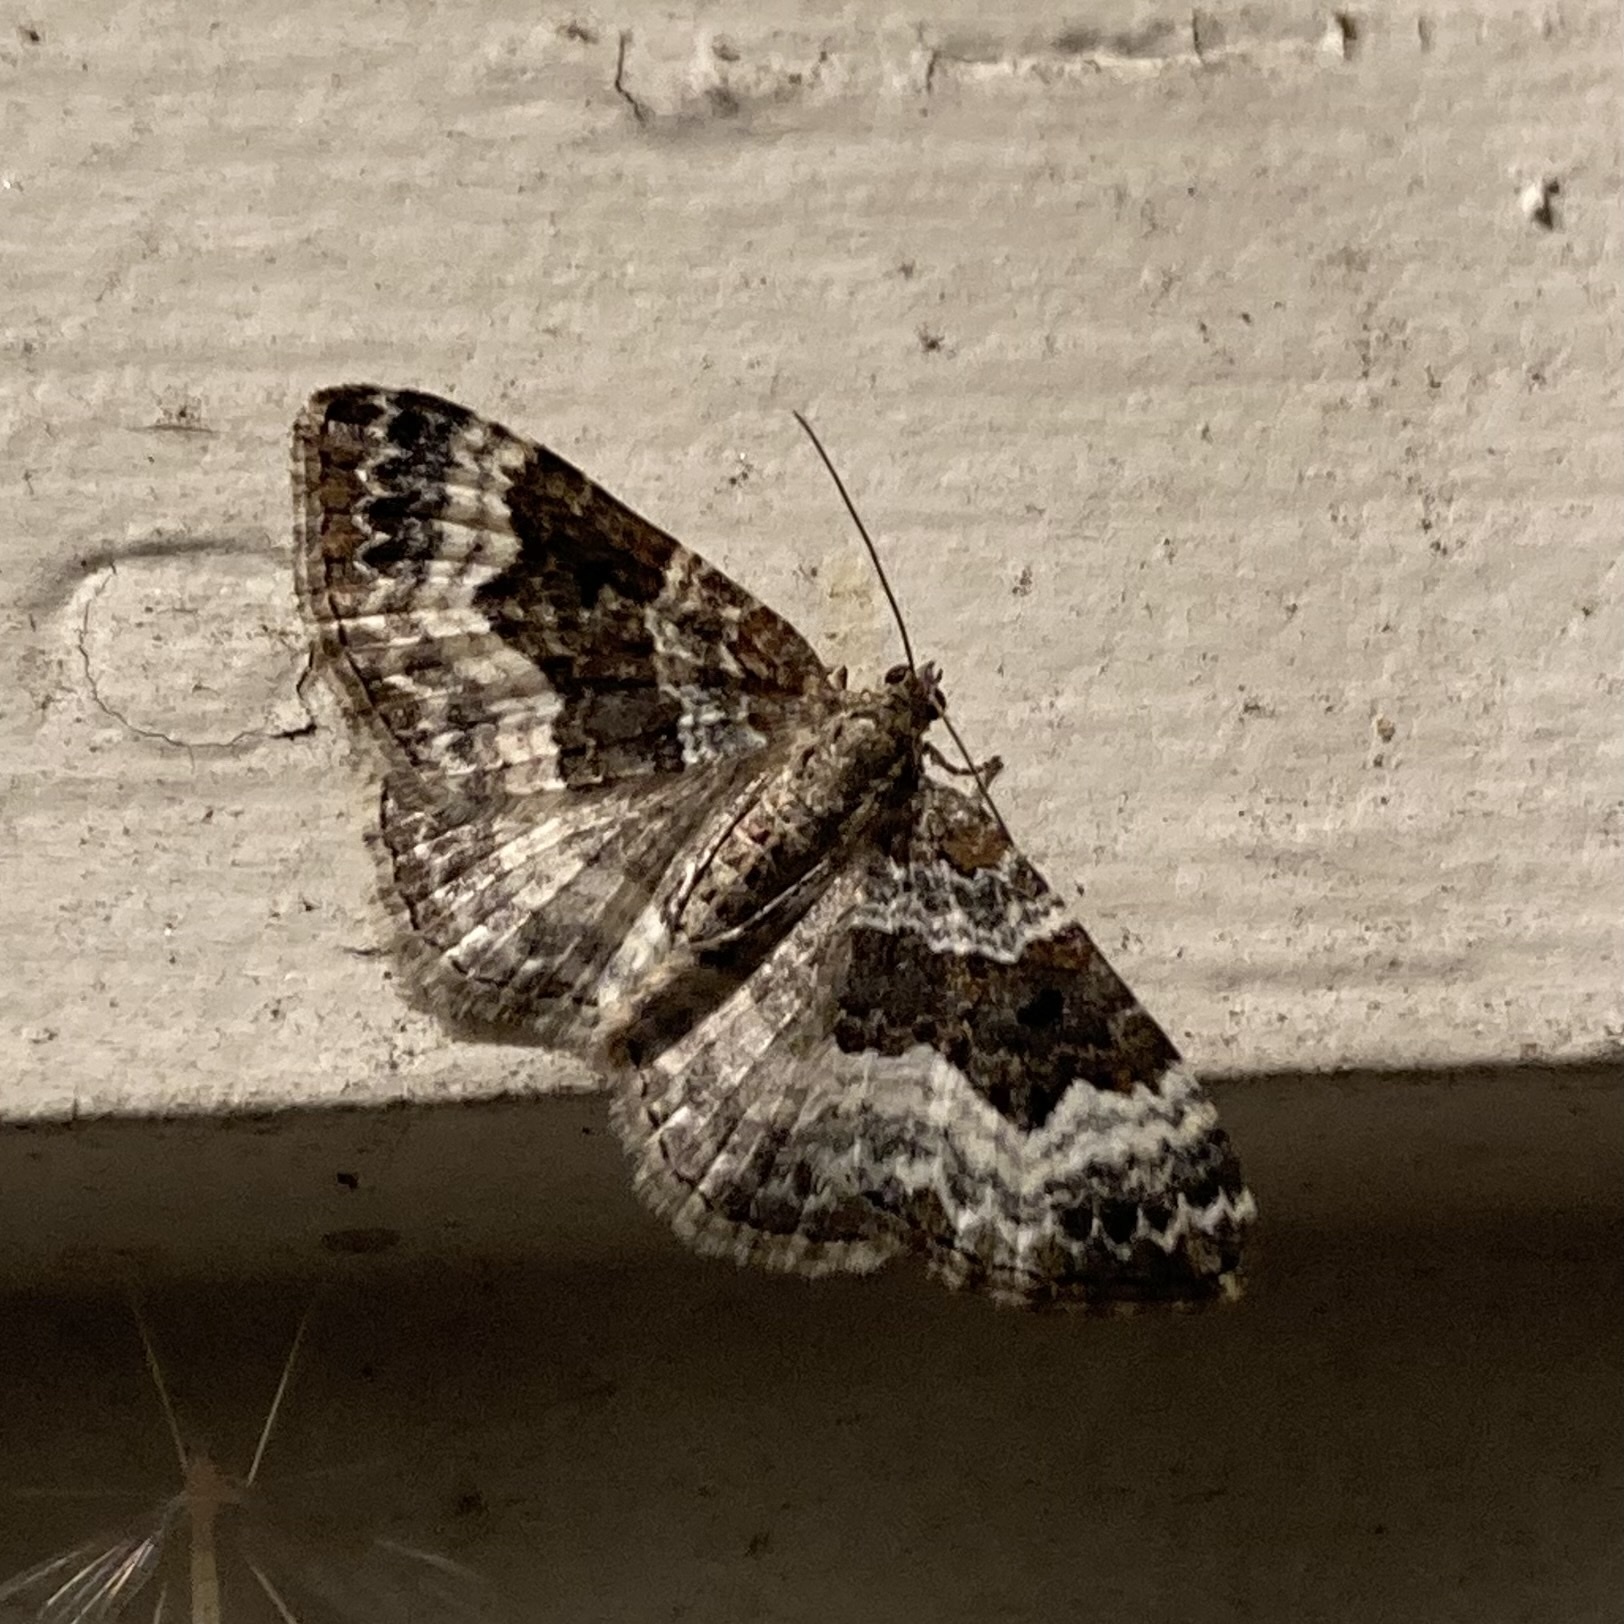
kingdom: Animalia
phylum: Arthropoda
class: Insecta
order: Lepidoptera
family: Geometridae
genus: Epirrhoe
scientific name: Epirrhoe alternata
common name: Common carpet
